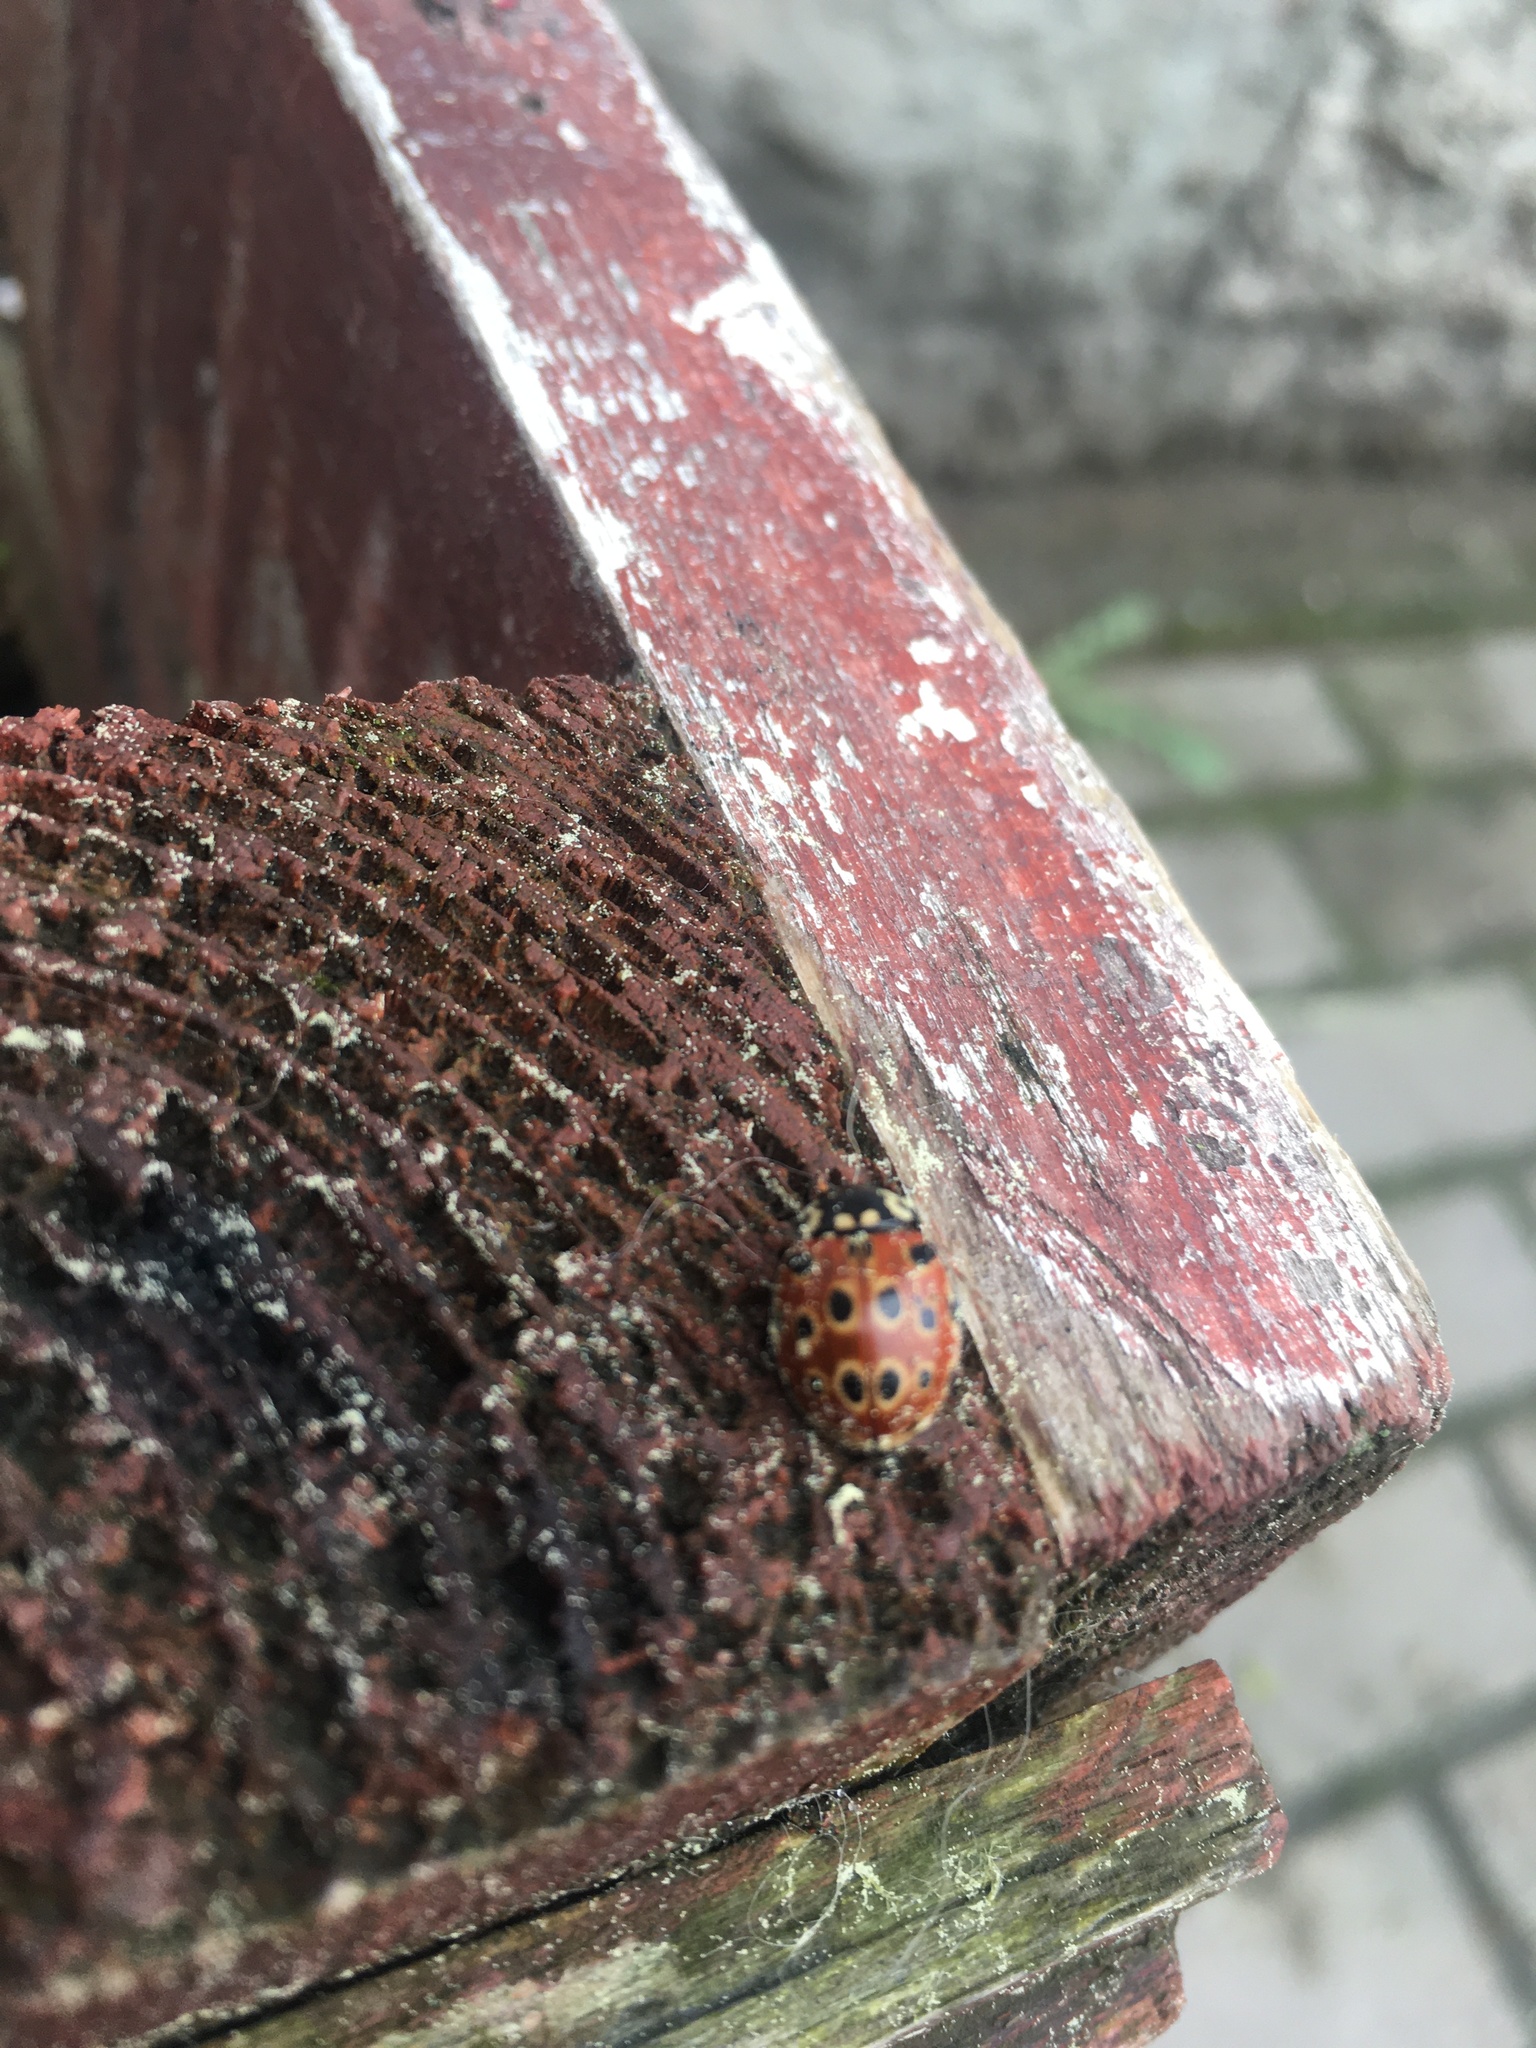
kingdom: Animalia
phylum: Arthropoda
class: Insecta
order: Coleoptera
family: Coccinellidae
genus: Anatis
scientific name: Anatis ocellata
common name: Eyed ladybird
